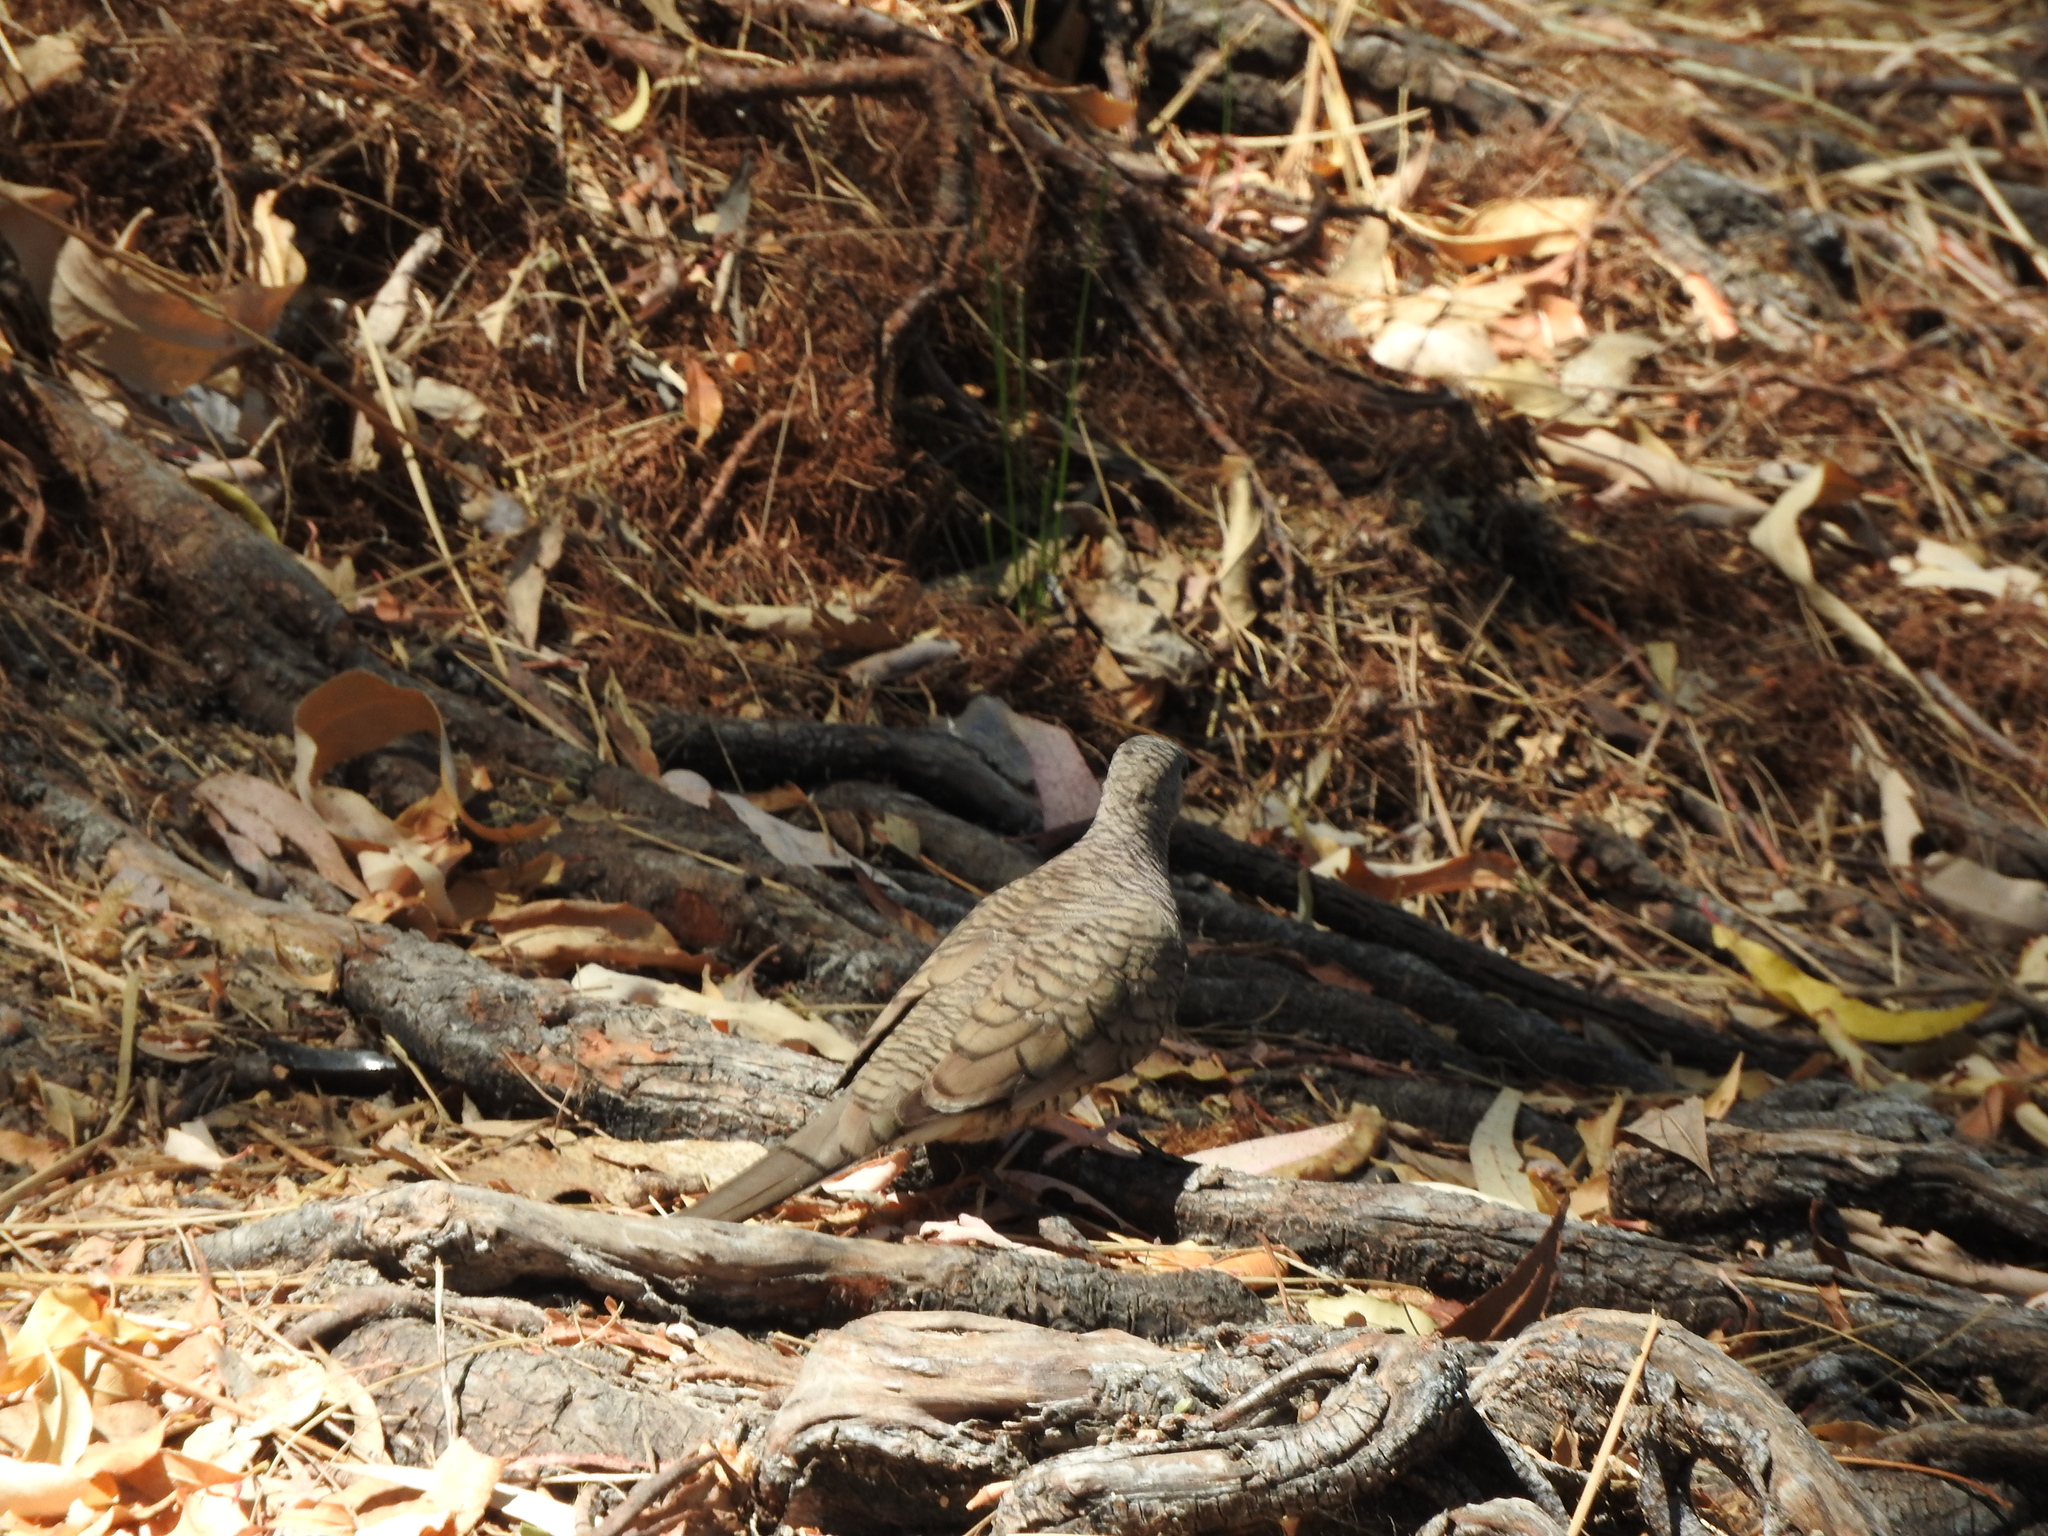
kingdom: Animalia
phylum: Chordata
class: Aves
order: Columbiformes
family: Columbidae
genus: Columbina
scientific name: Columbina inca
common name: Inca dove
